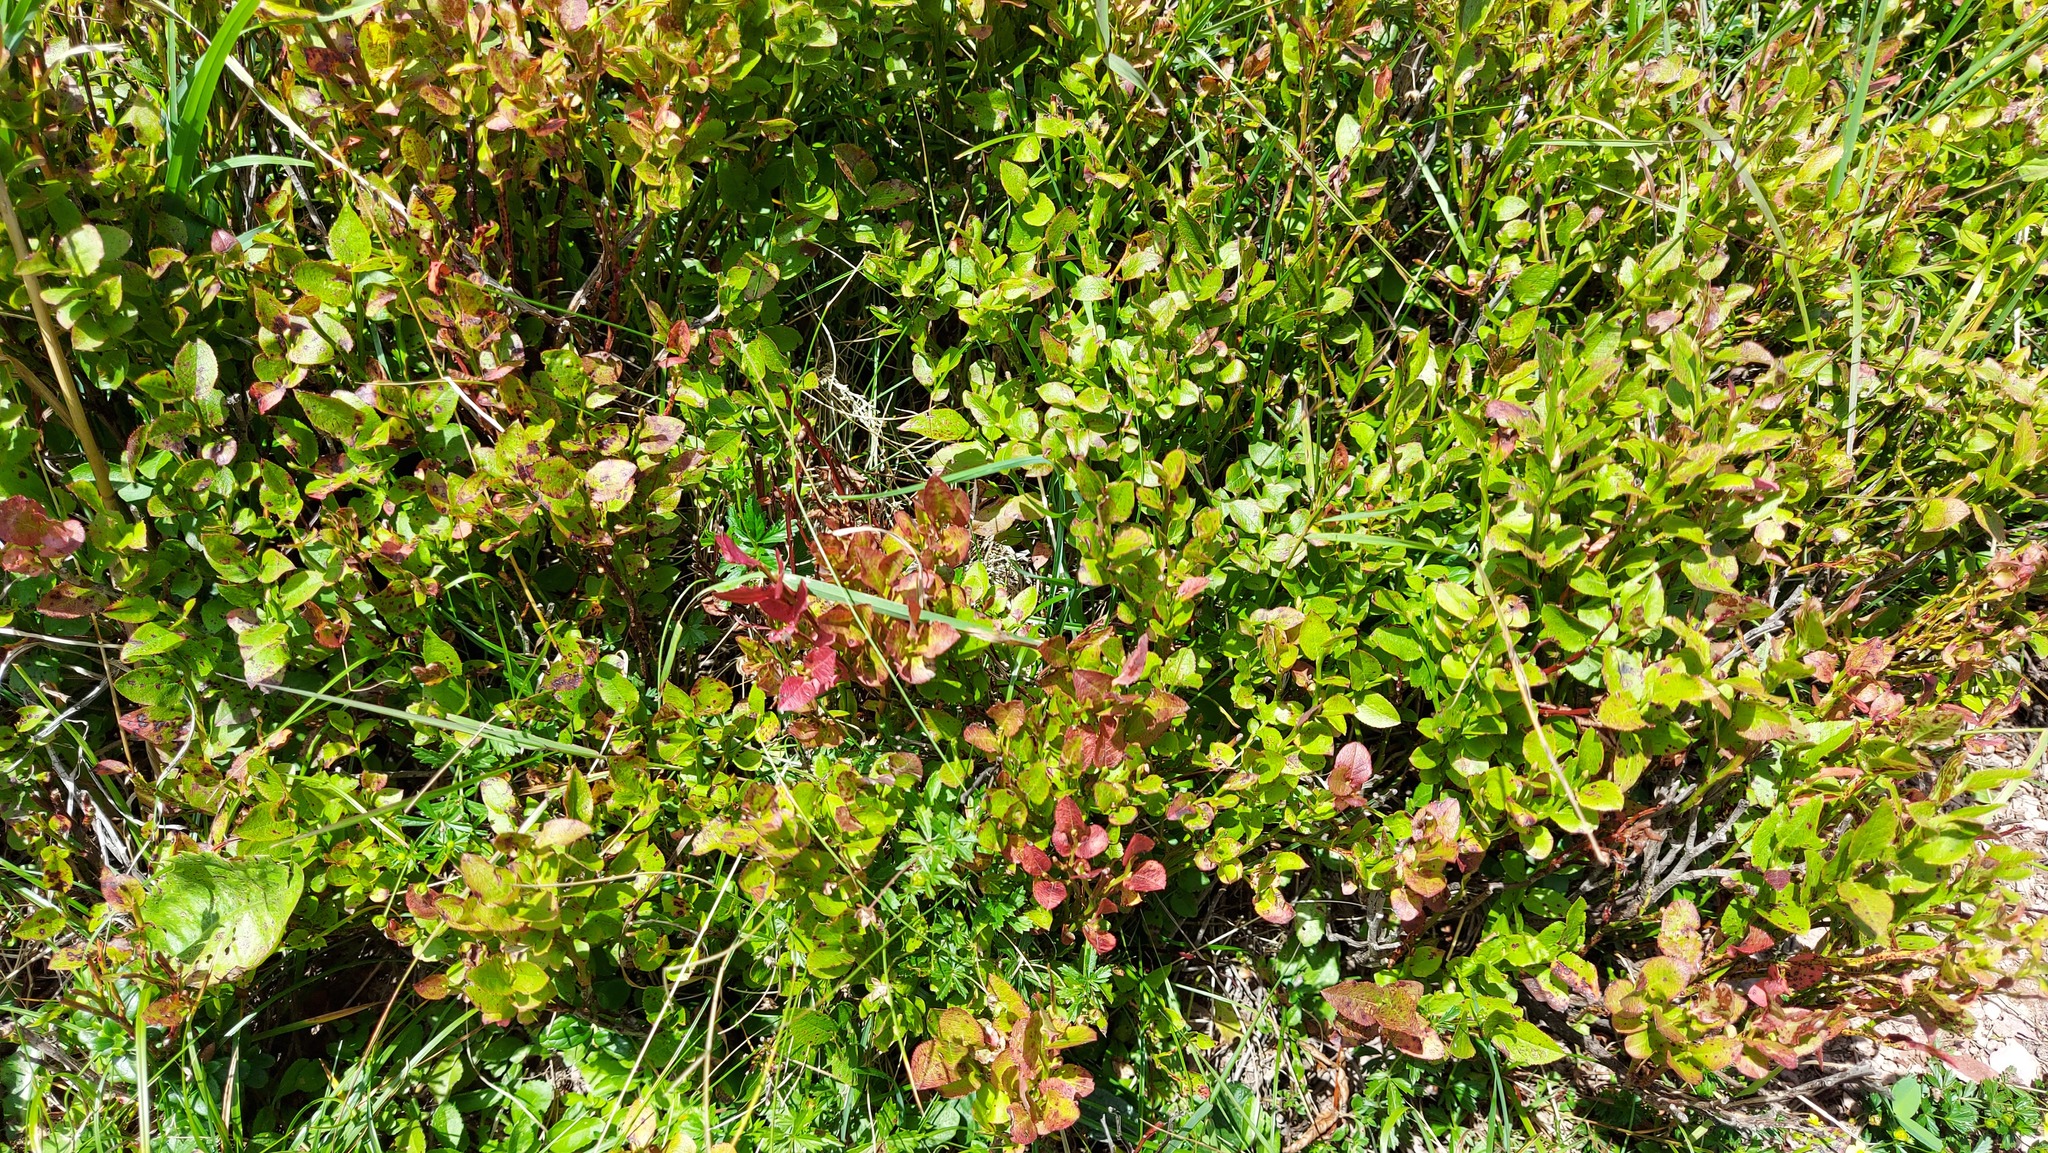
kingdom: Plantae
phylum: Tracheophyta
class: Magnoliopsida
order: Ericales
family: Ericaceae
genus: Vaccinium
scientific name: Vaccinium myrtillus
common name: Bilberry
